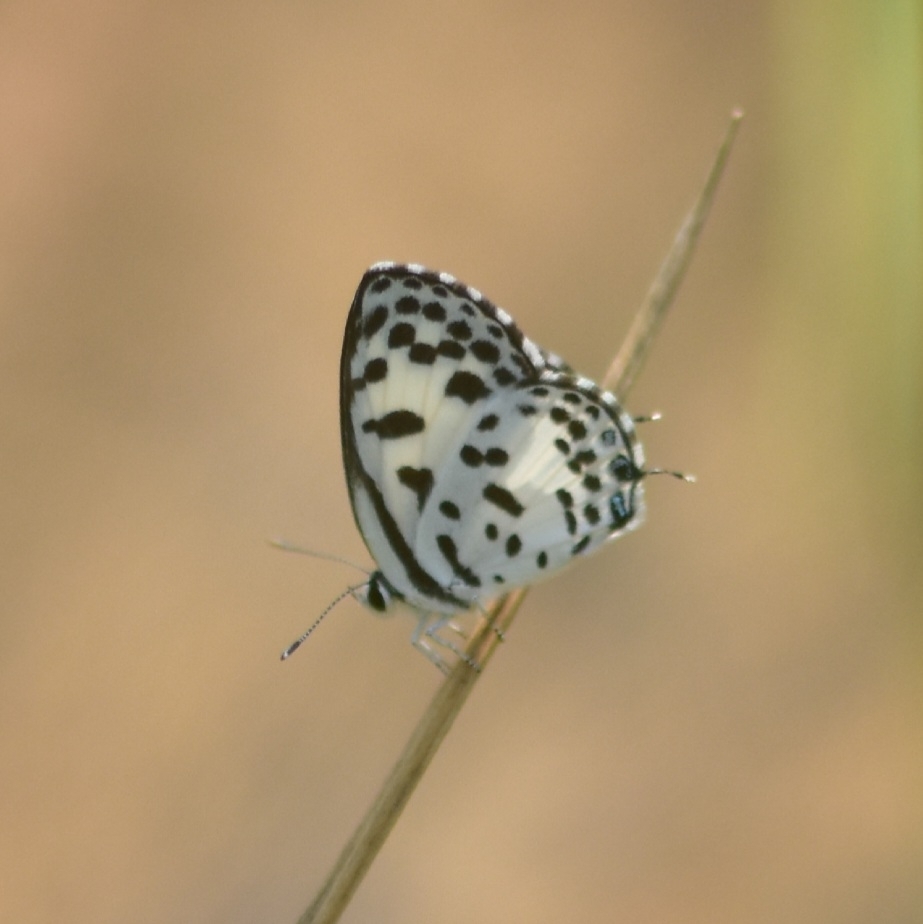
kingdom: Animalia
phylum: Arthropoda
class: Insecta
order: Lepidoptera
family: Lycaenidae
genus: Castalius
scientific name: Castalius rosimon
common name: Common pierrot
